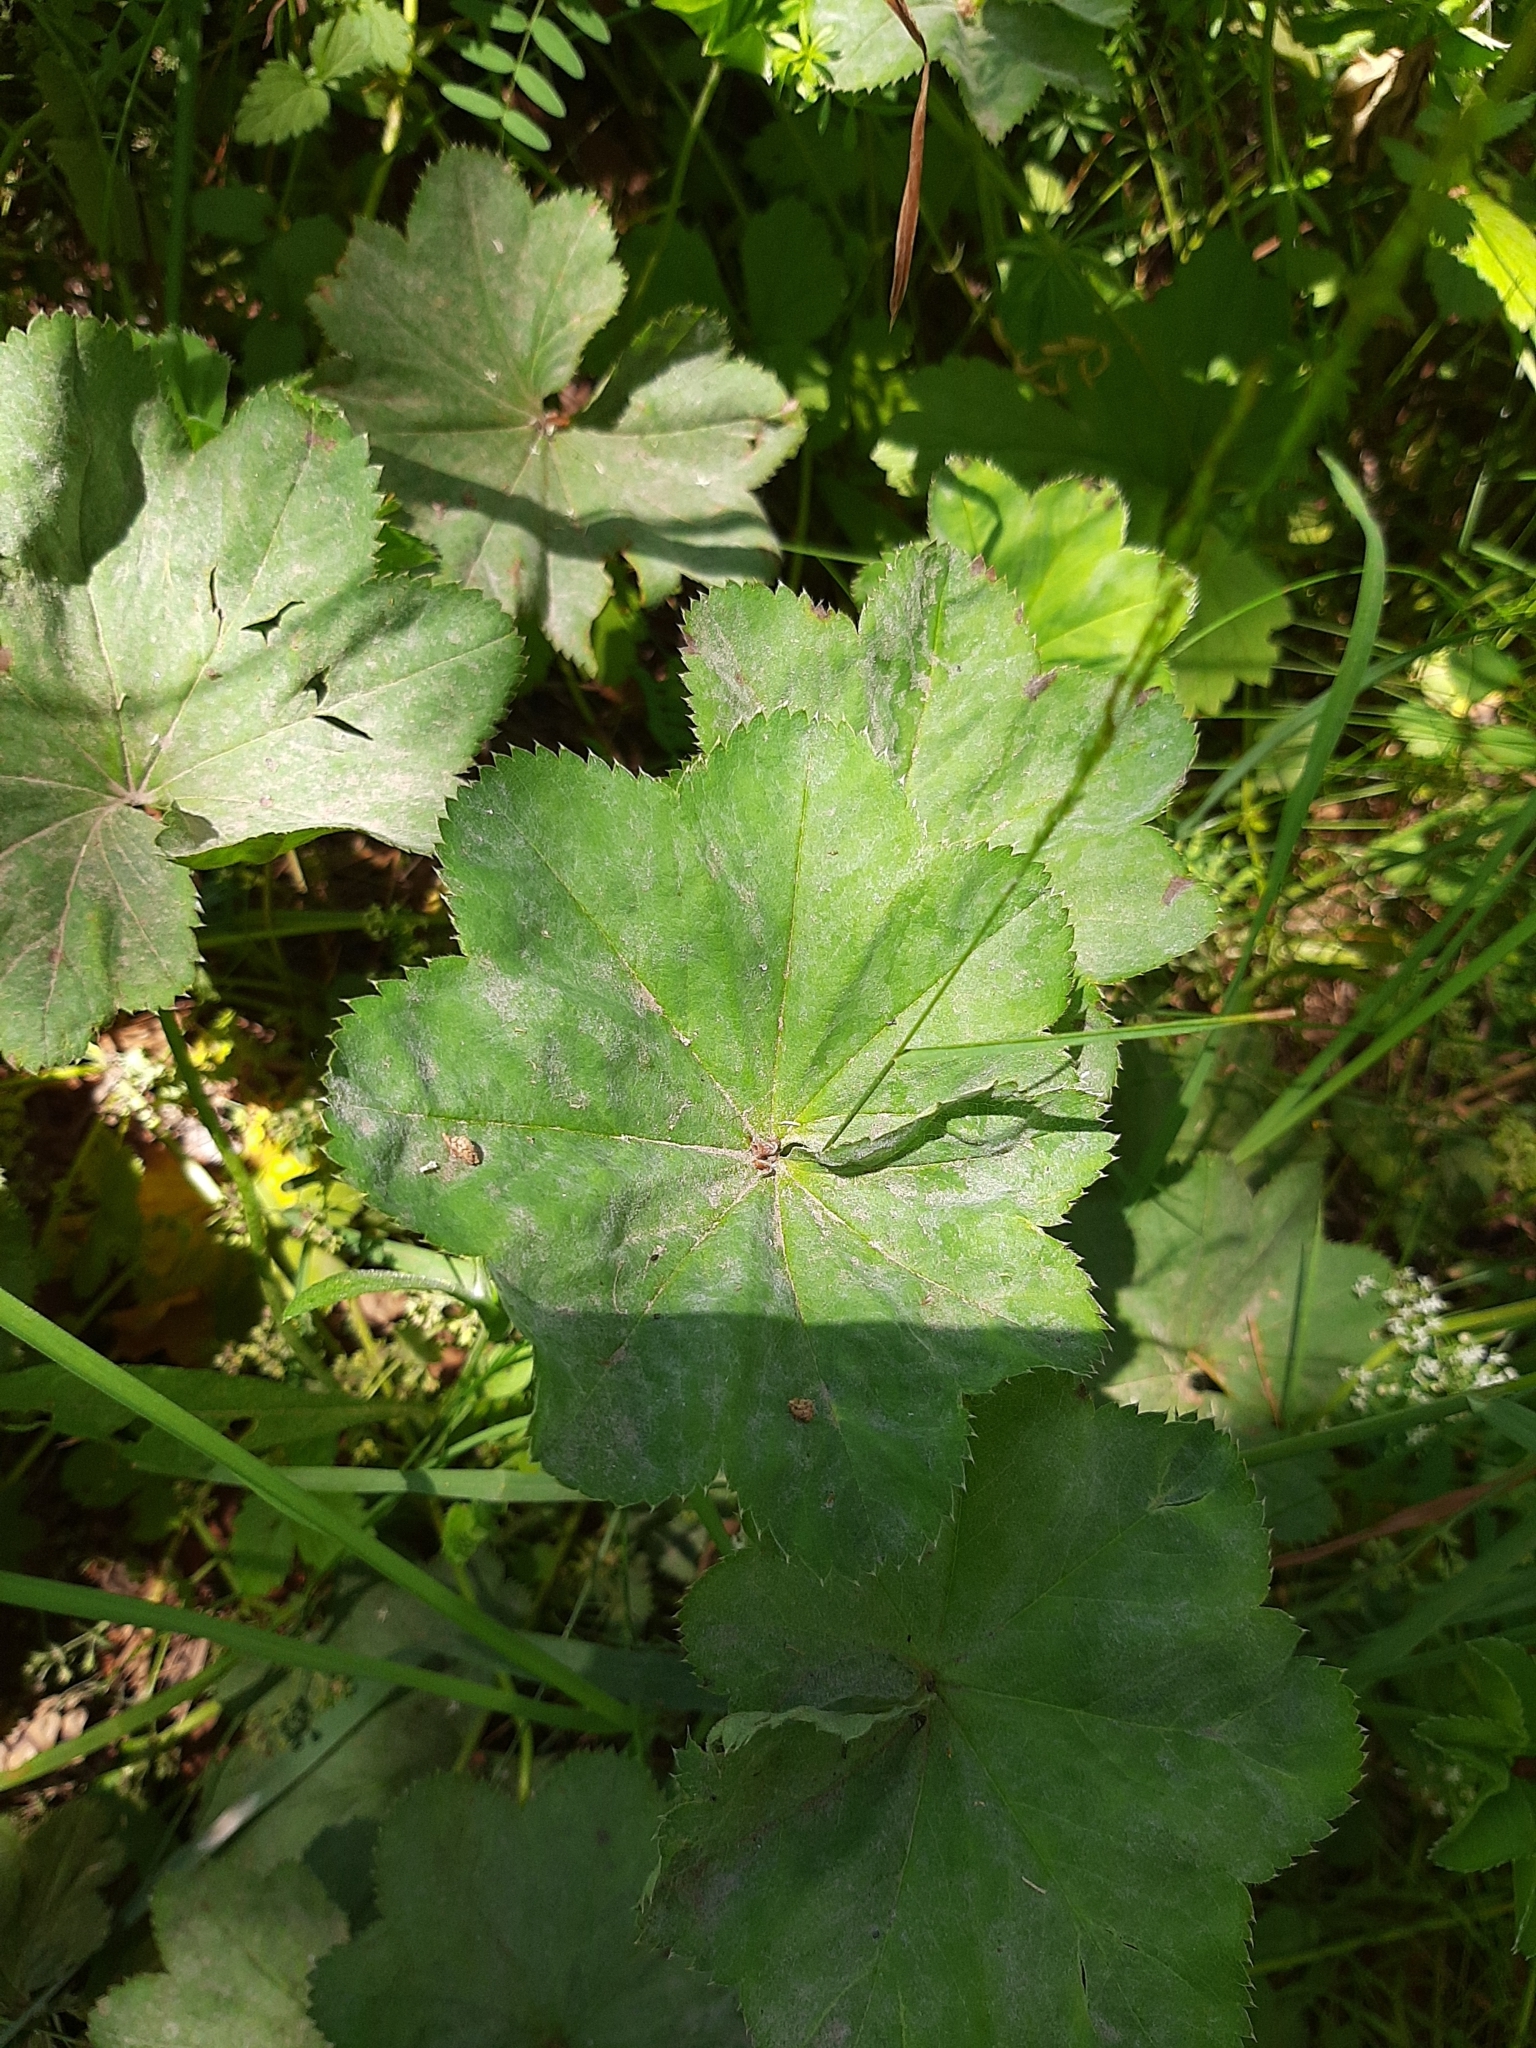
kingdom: Plantae
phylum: Tracheophyta
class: Magnoliopsida
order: Rosales
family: Rosaceae
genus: Alchemilla
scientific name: Alchemilla
